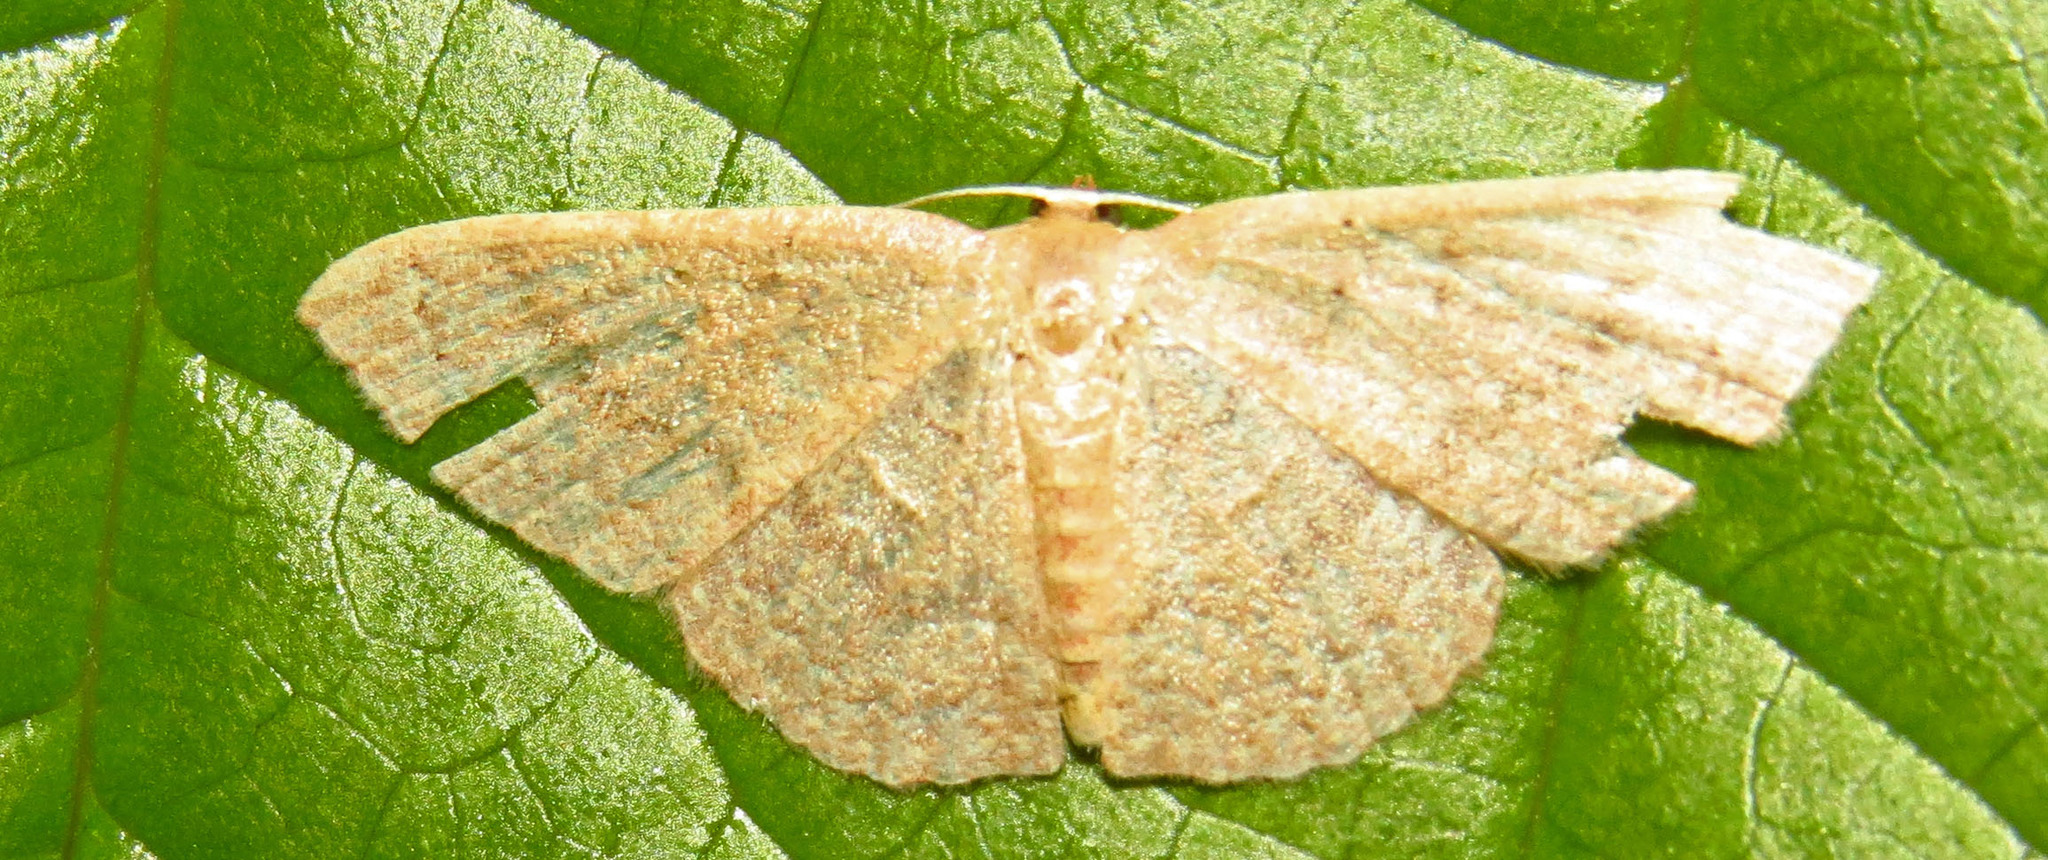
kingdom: Animalia
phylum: Arthropoda
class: Insecta
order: Lepidoptera
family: Geometridae
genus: Pleuroprucha
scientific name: Pleuroprucha insulsaria
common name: Common tan wave
